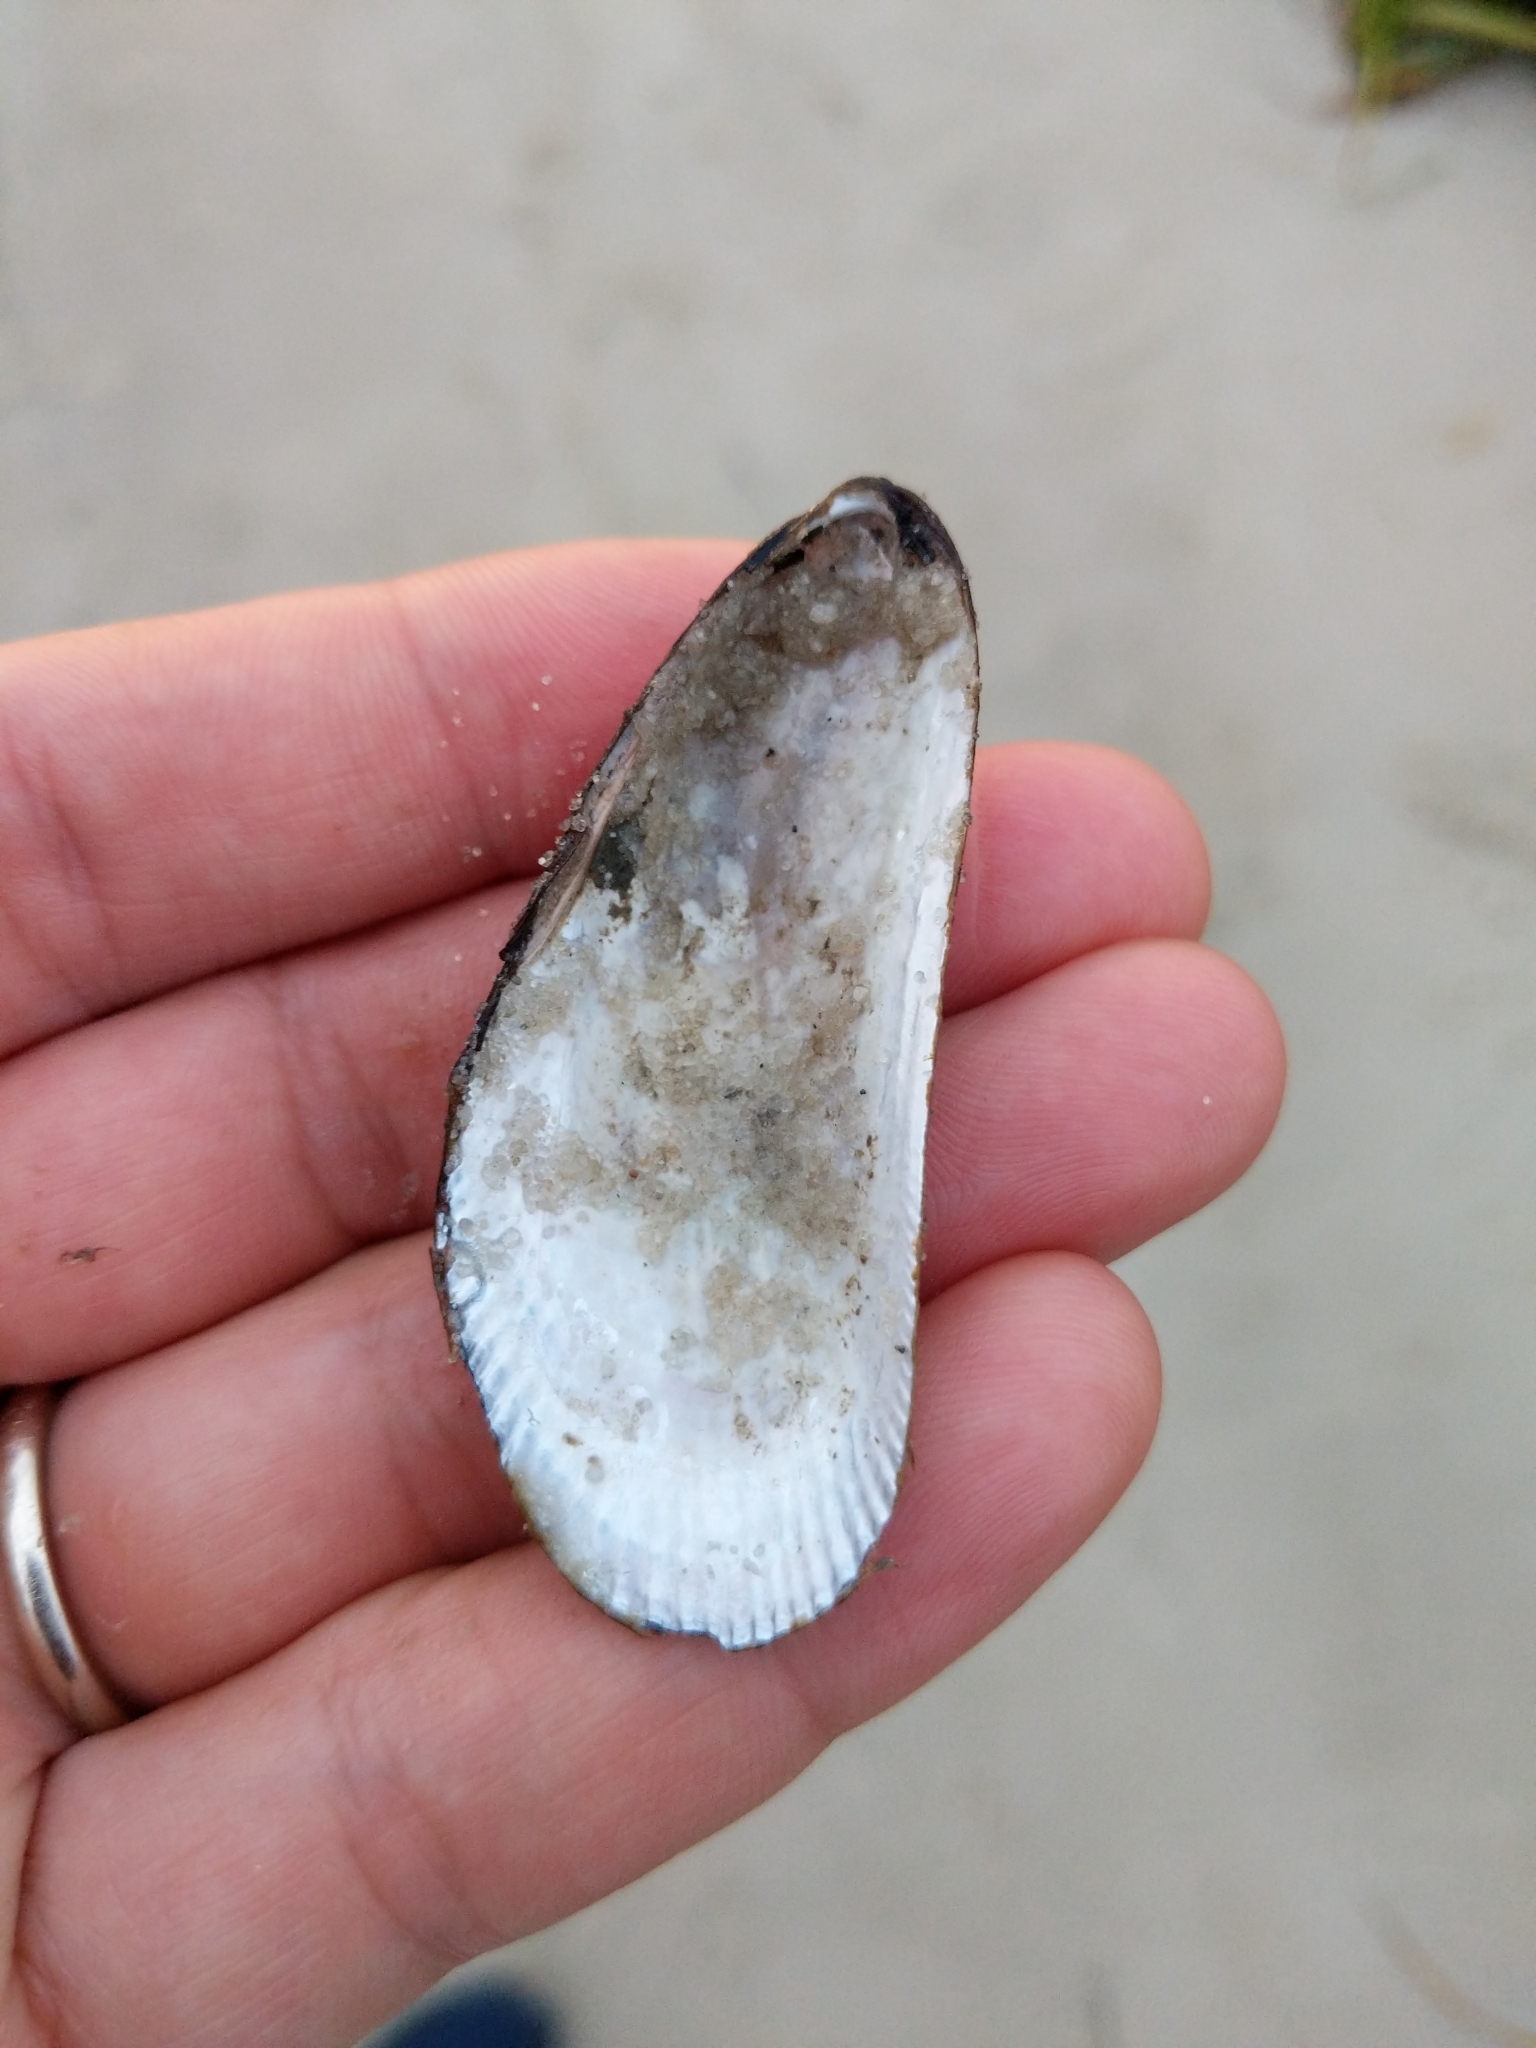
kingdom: Animalia
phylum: Mollusca
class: Bivalvia
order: Mytilida
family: Mytilidae
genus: Geukensia
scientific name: Geukensia demissa
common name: Ribbed mussel
